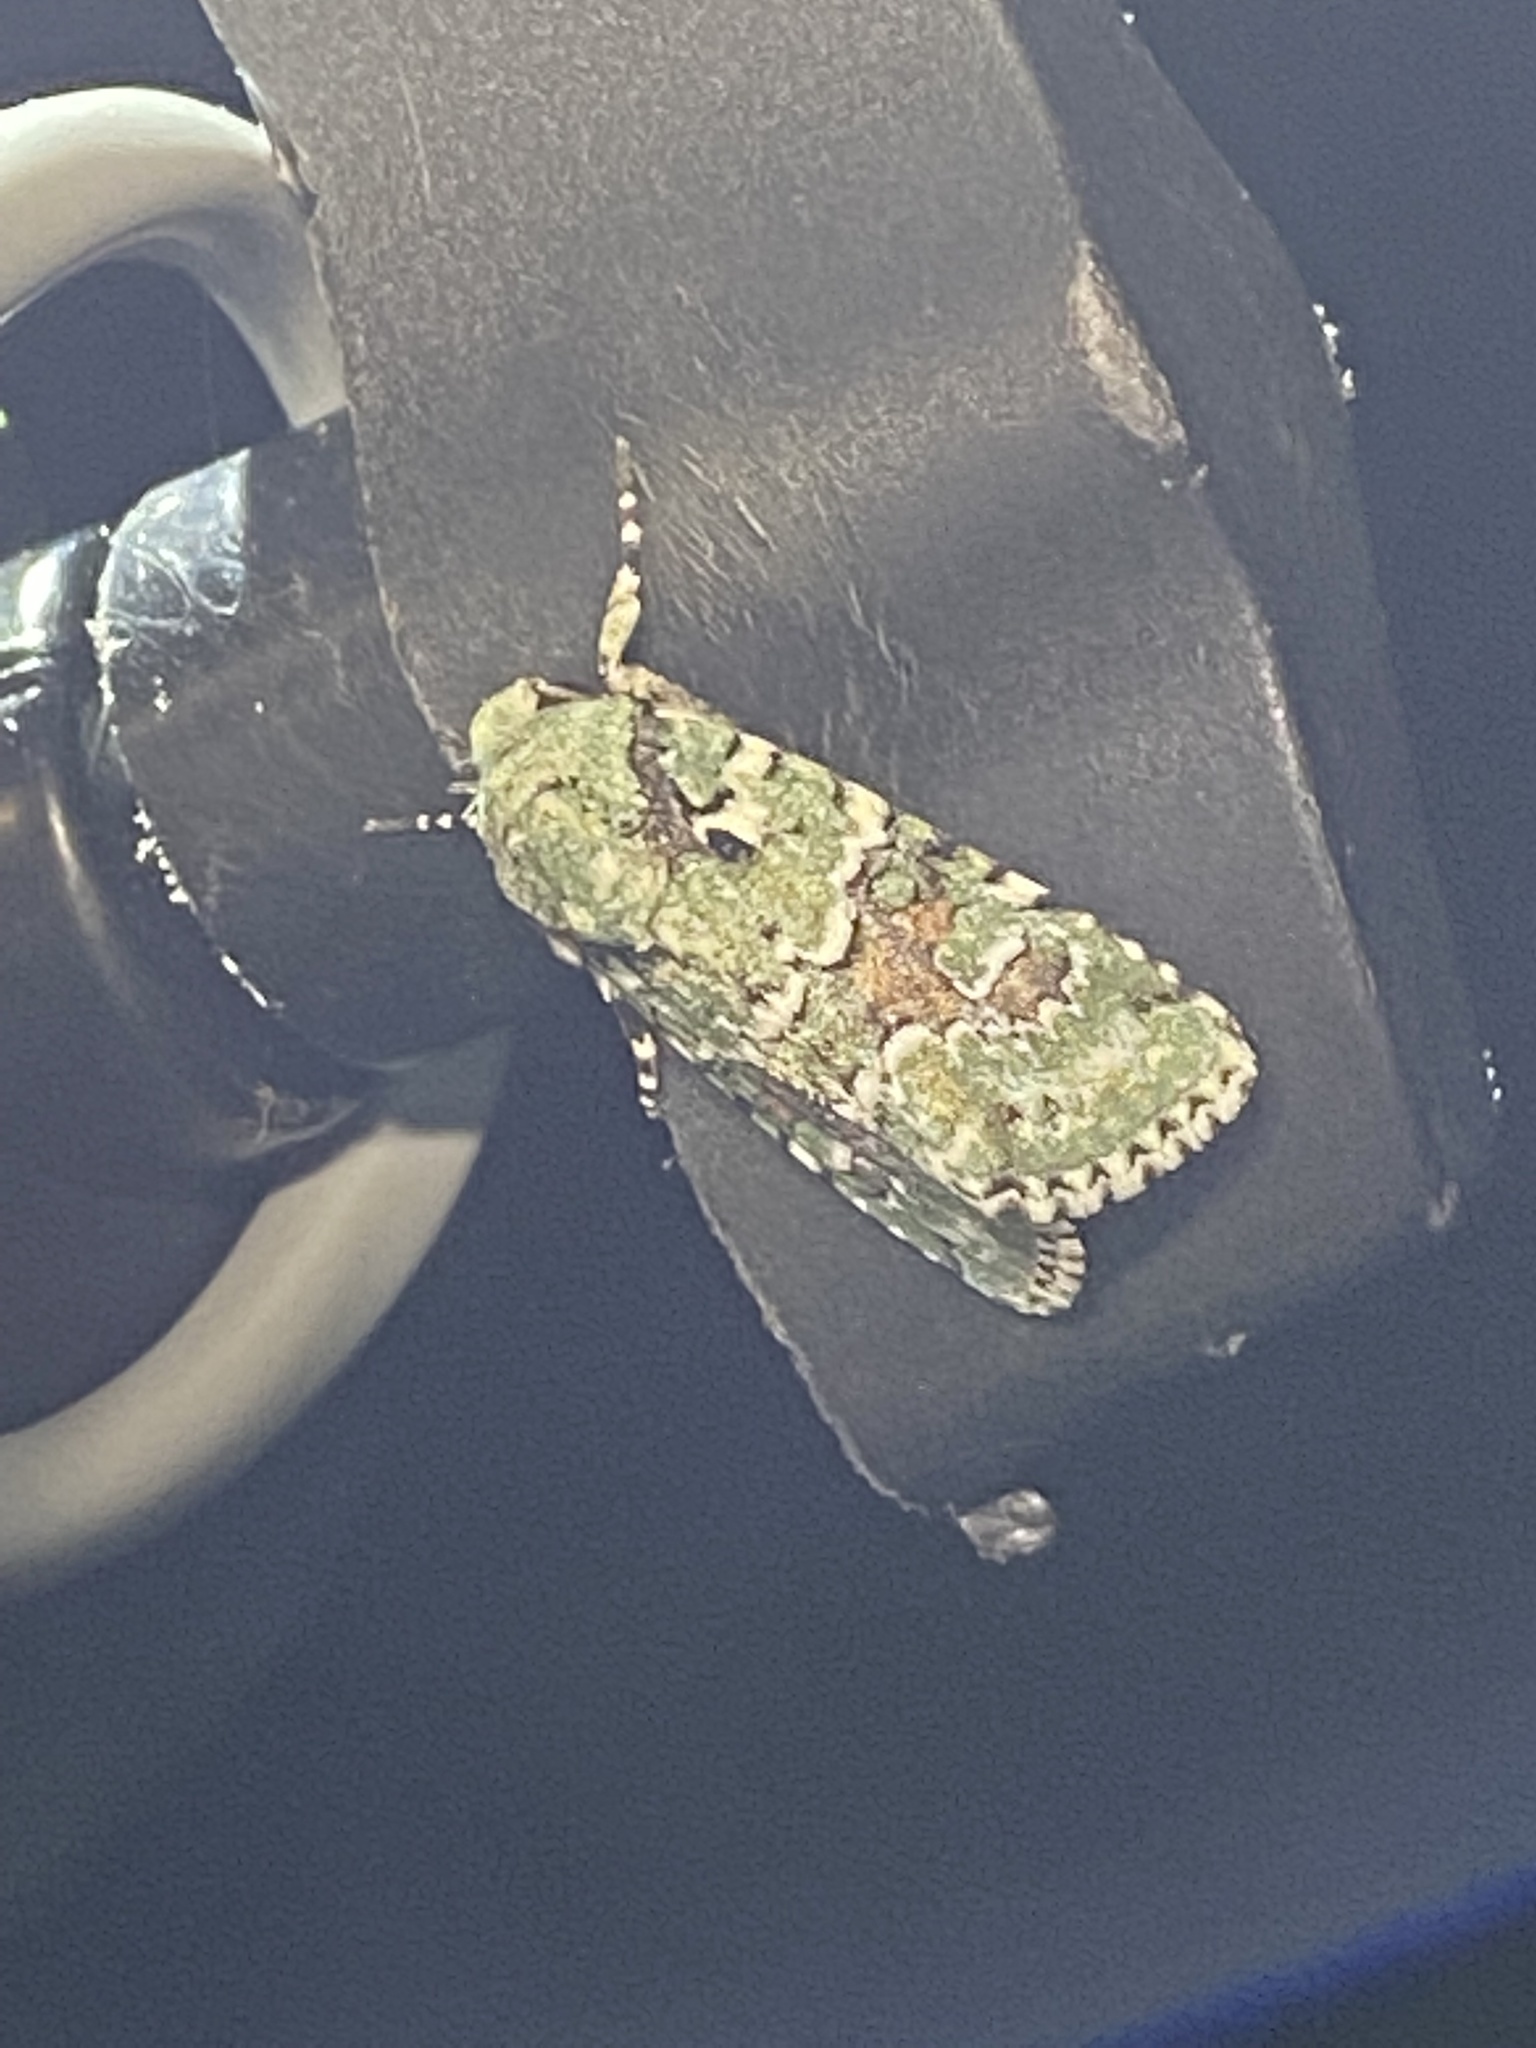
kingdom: Animalia
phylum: Arthropoda
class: Insecta
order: Lepidoptera
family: Noctuidae
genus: Lacinipolia
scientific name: Lacinipolia laudabilis
